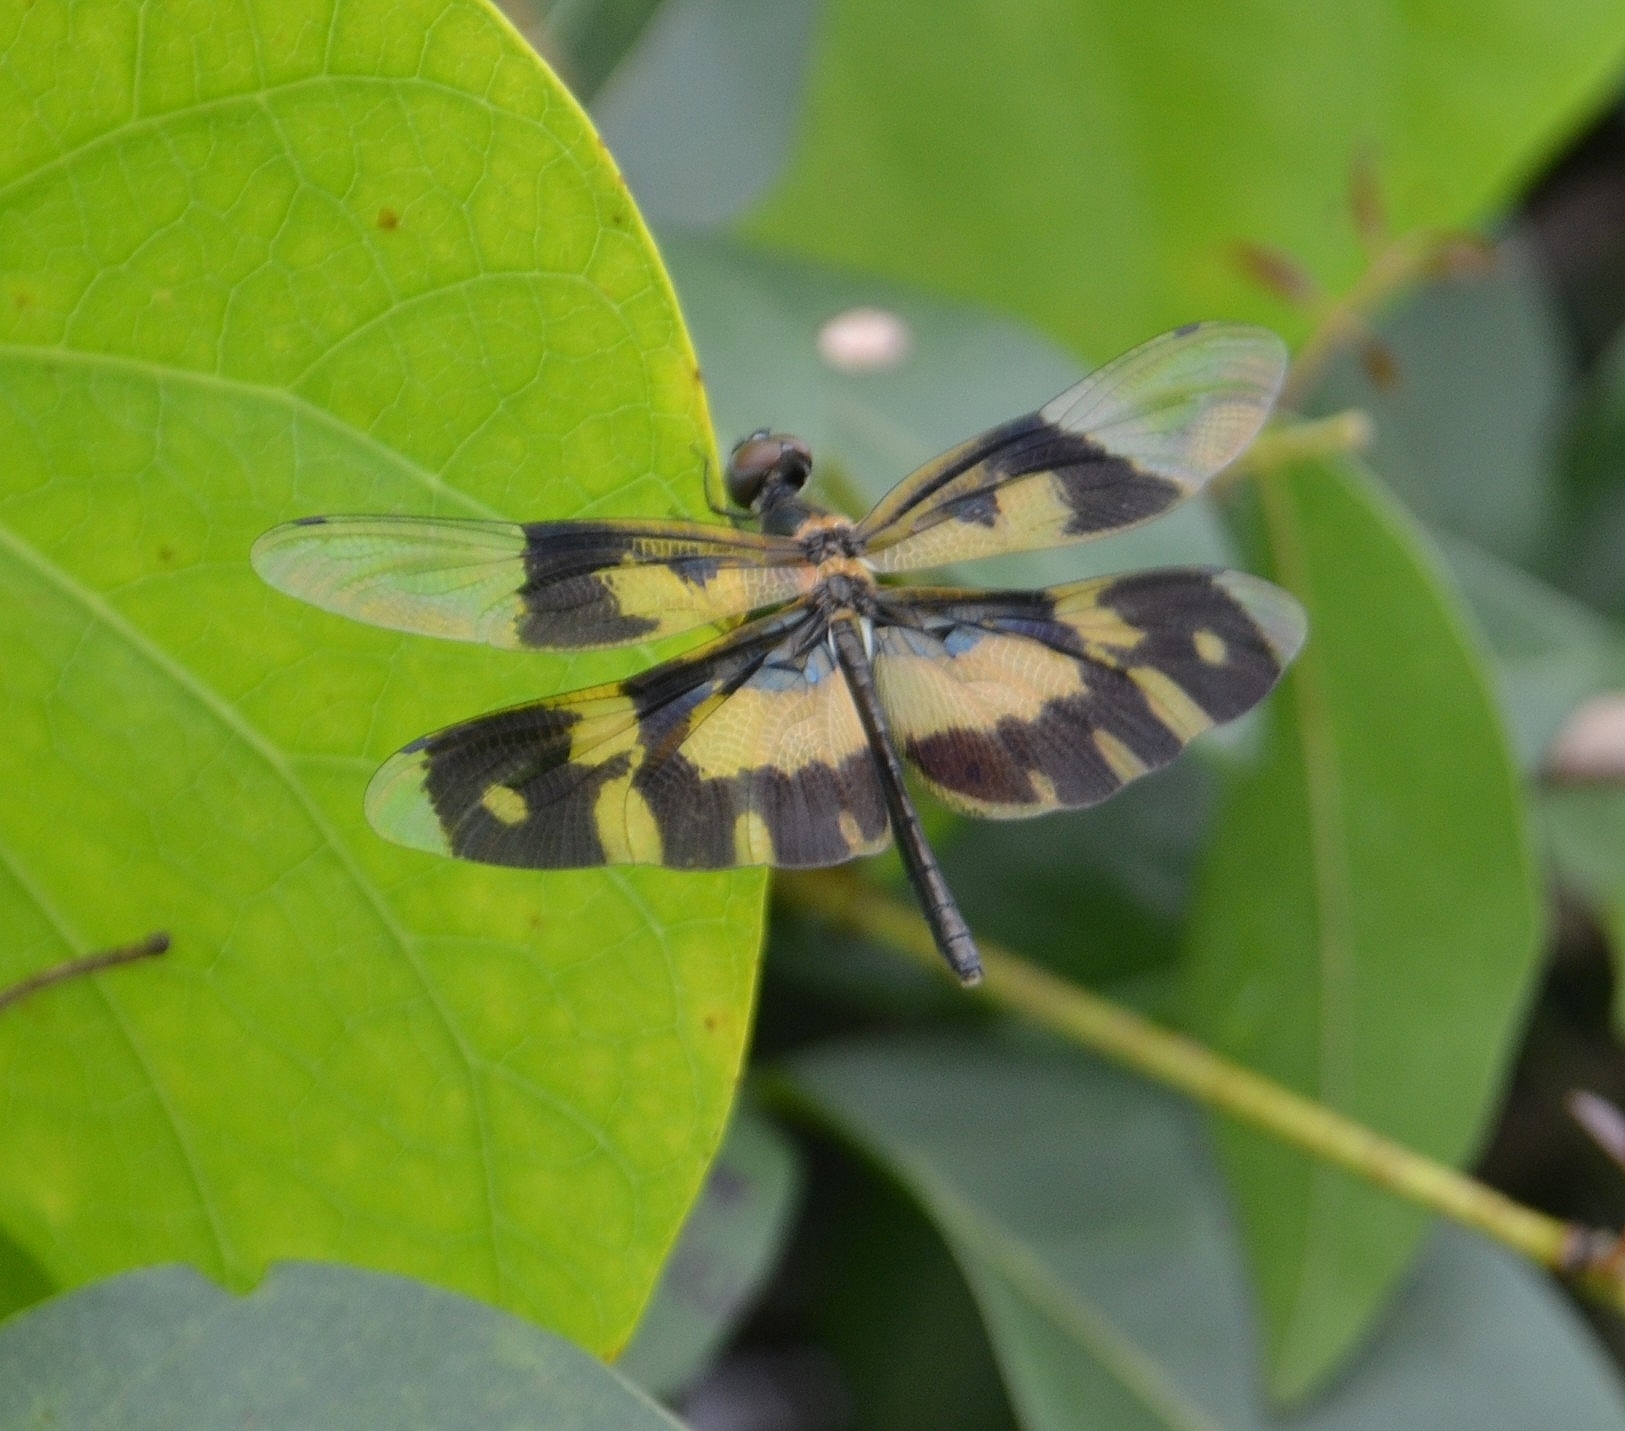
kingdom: Animalia
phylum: Arthropoda
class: Insecta
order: Odonata
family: Libellulidae
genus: Rhyothemis
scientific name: Rhyothemis variegata
